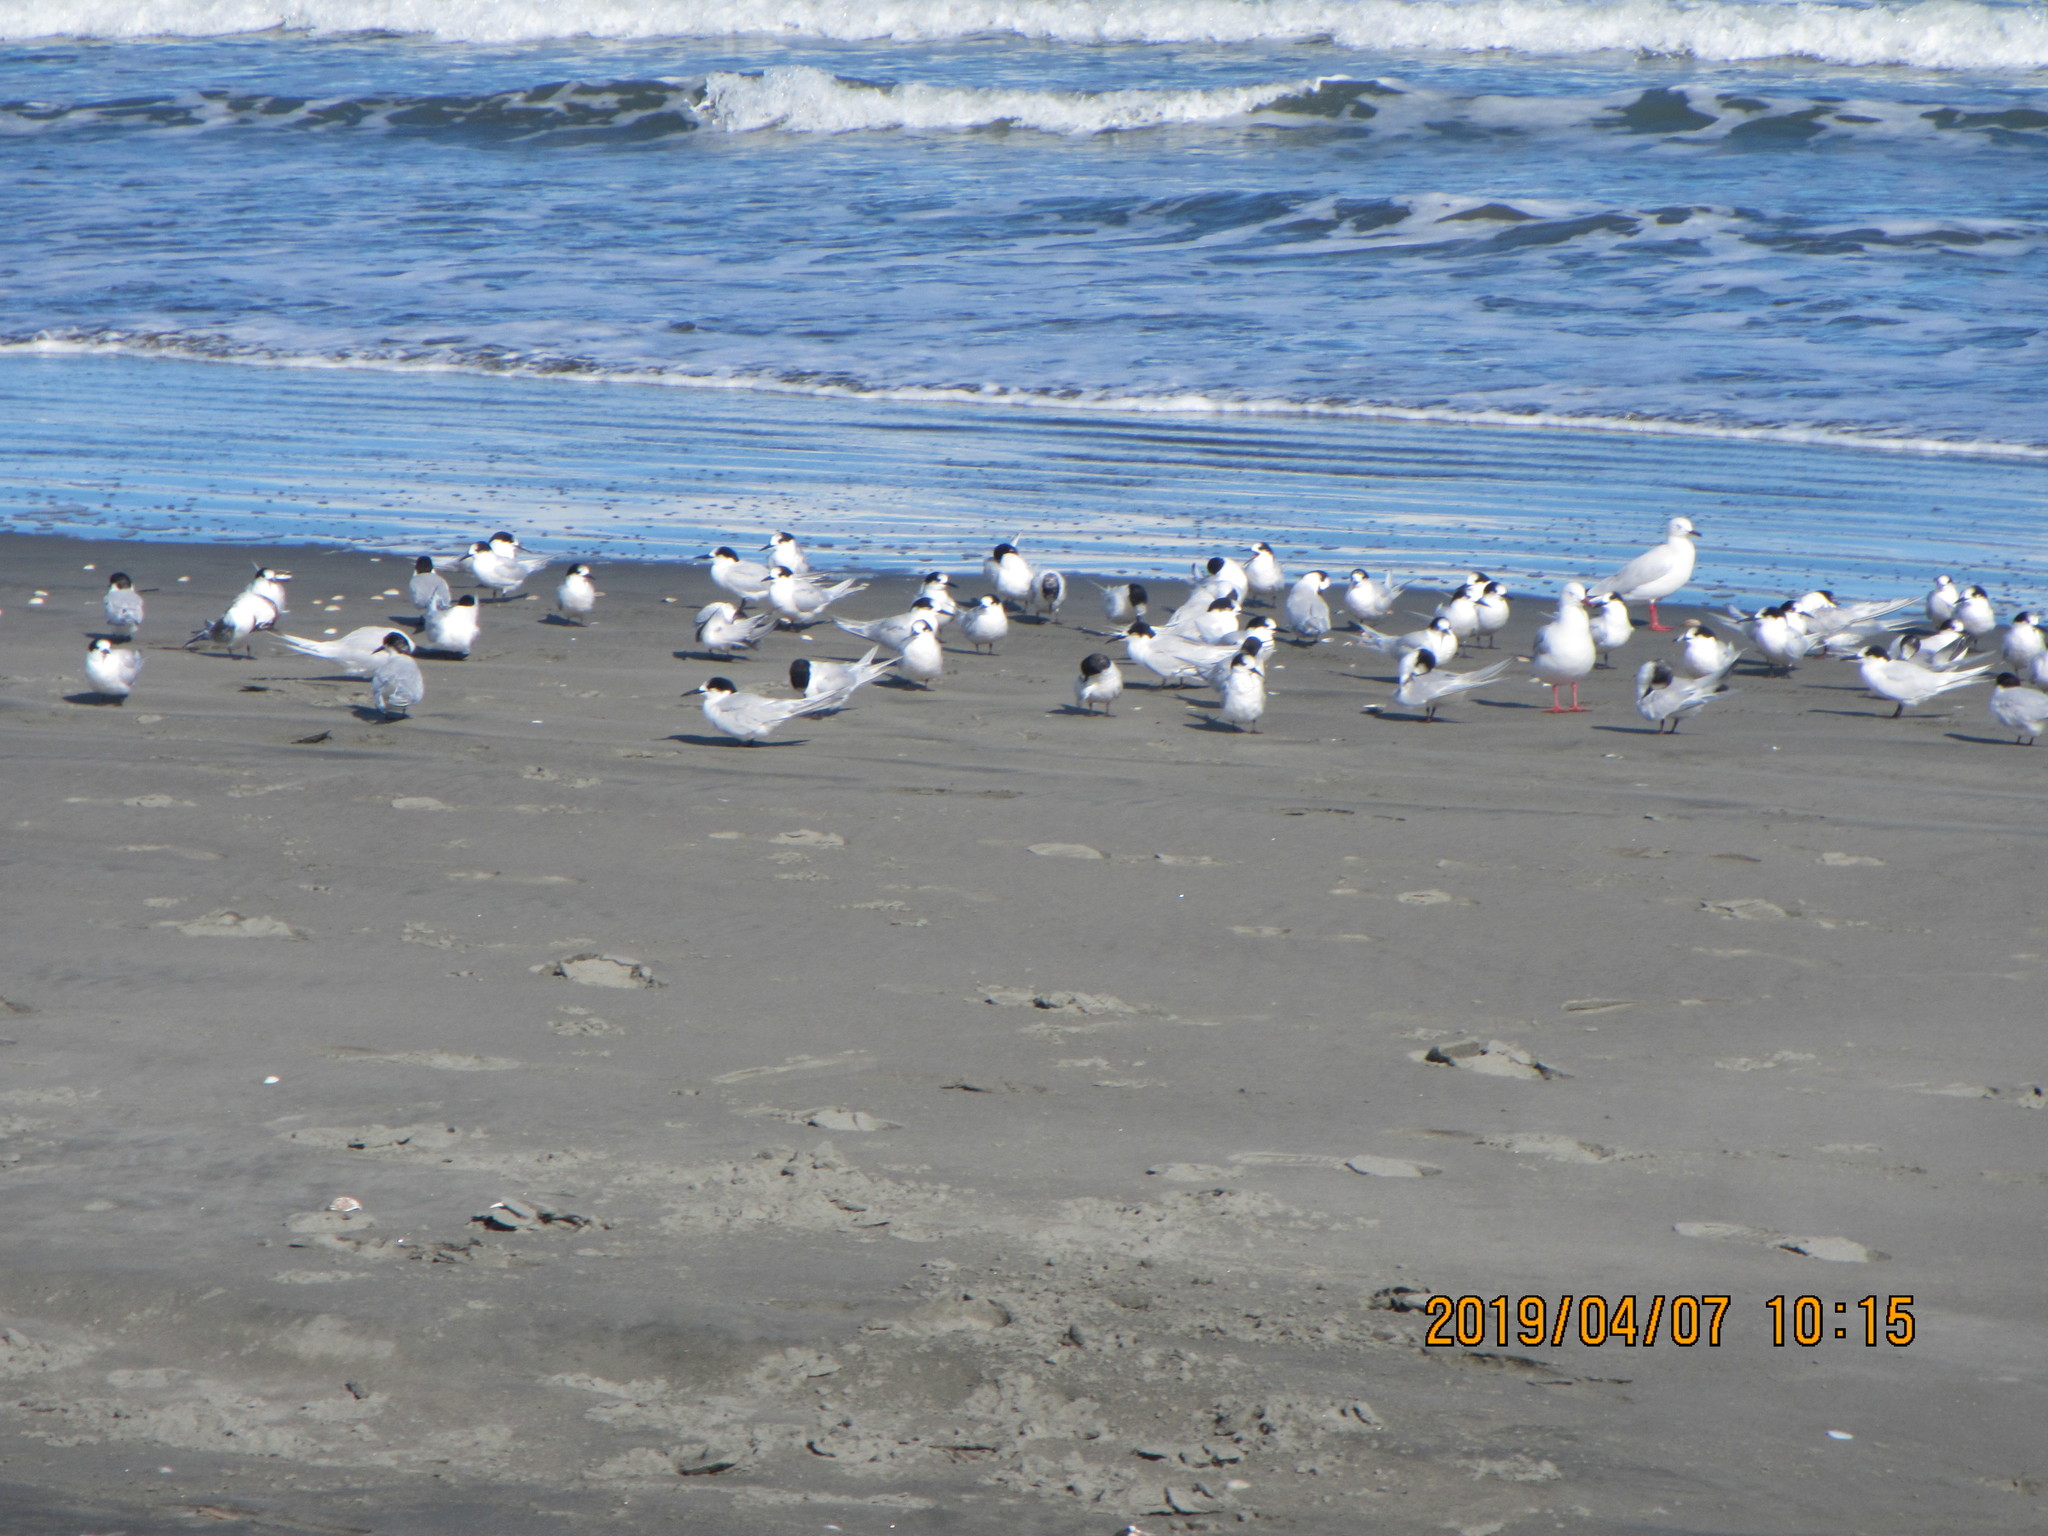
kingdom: Animalia
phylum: Chordata
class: Aves
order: Charadriiformes
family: Laridae
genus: Sterna
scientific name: Sterna striata
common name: White-fronted tern
